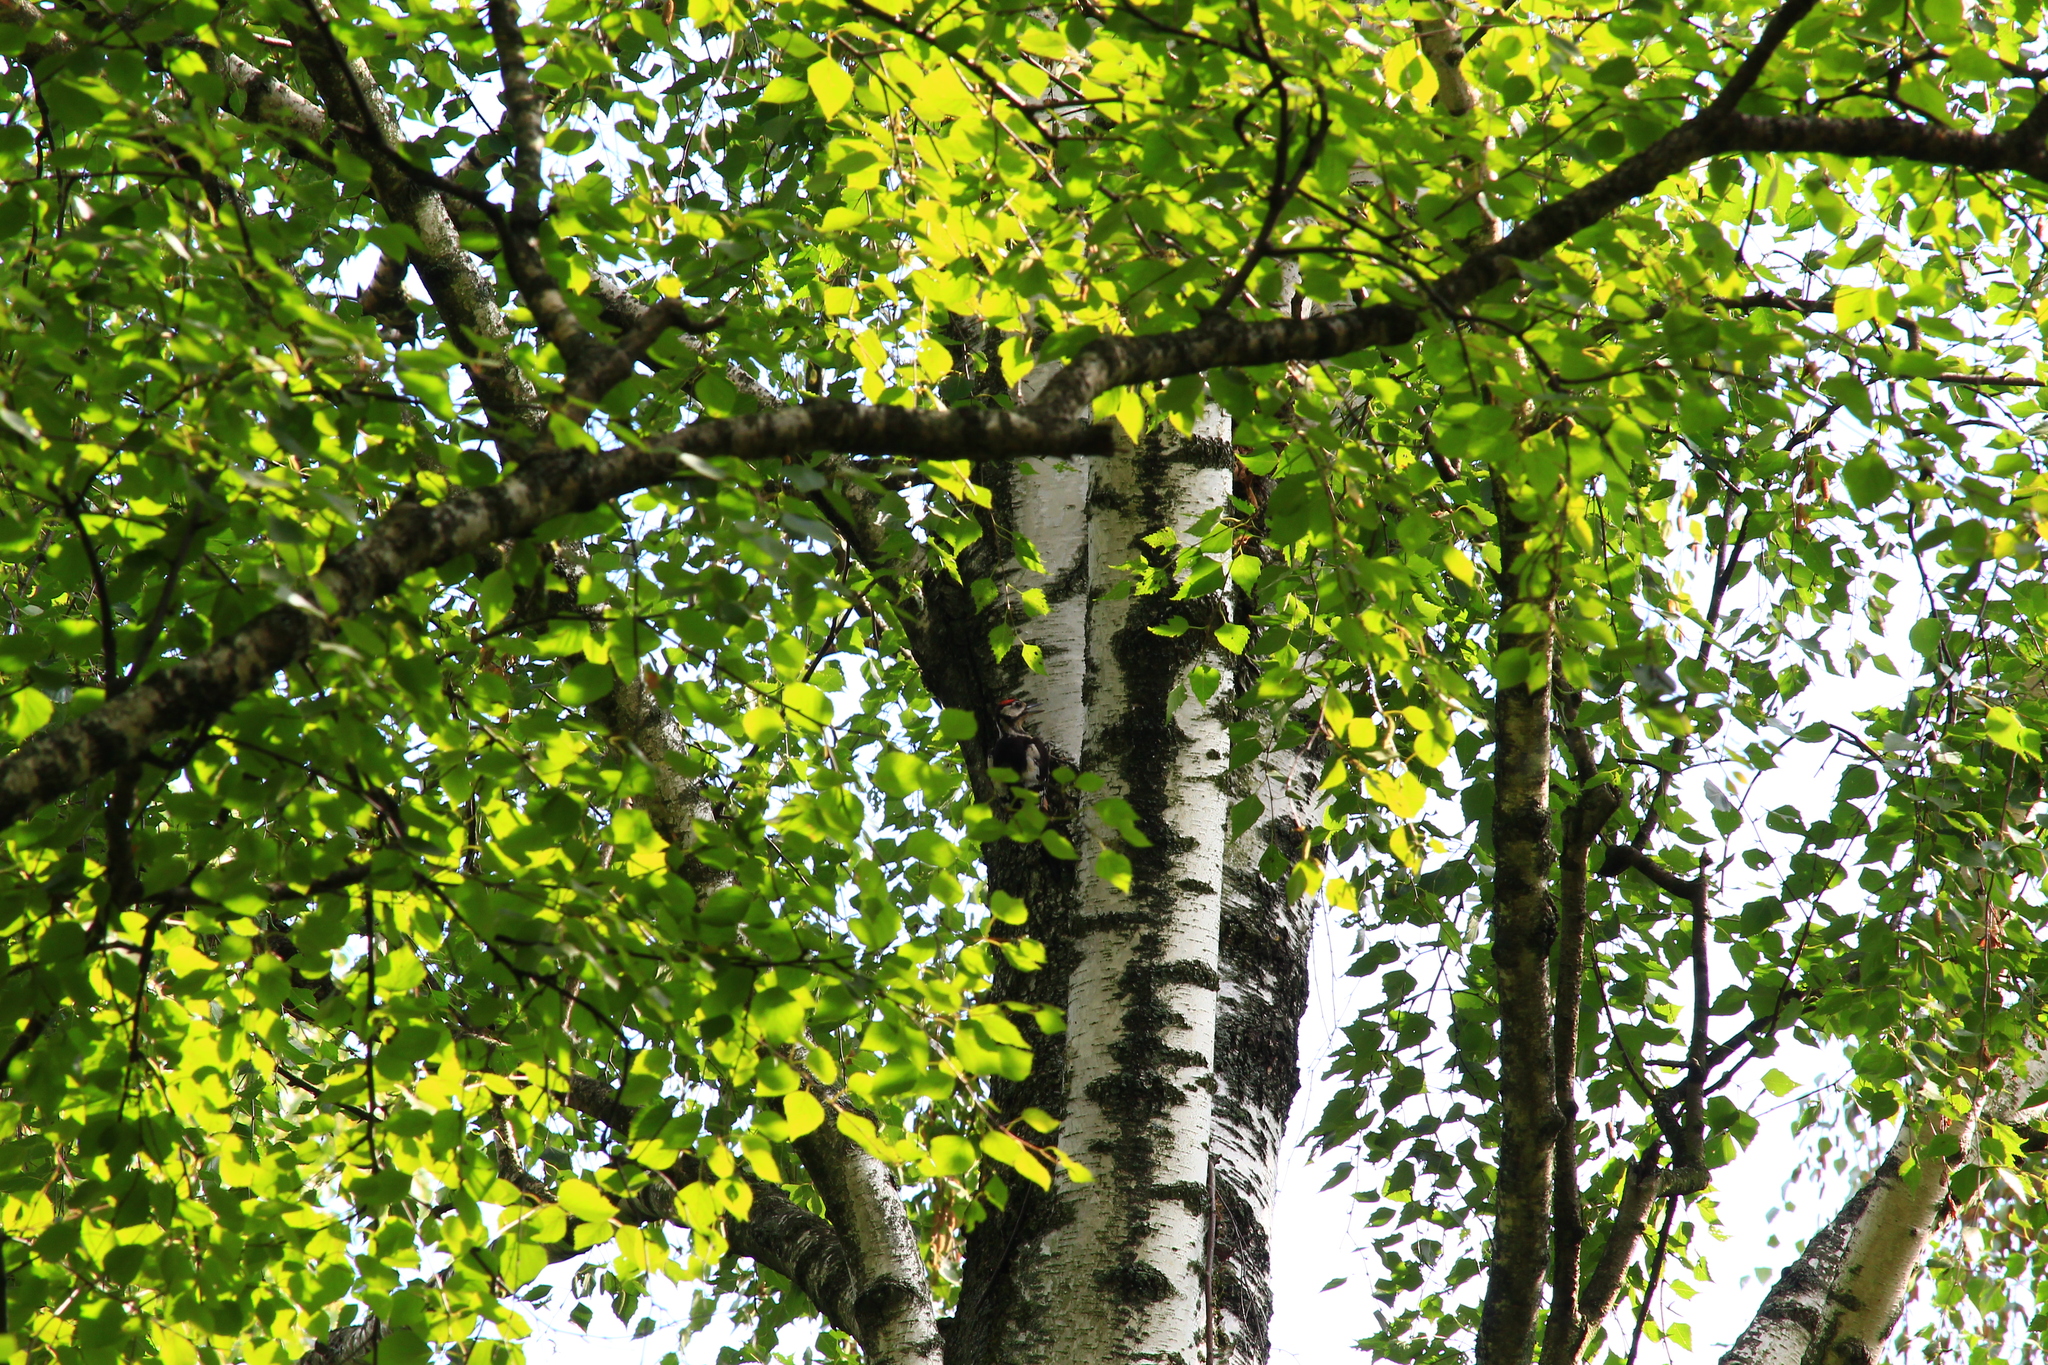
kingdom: Animalia
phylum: Chordata
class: Aves
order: Piciformes
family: Picidae
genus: Dendrocopos
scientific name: Dendrocopos major
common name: Great spotted woodpecker
